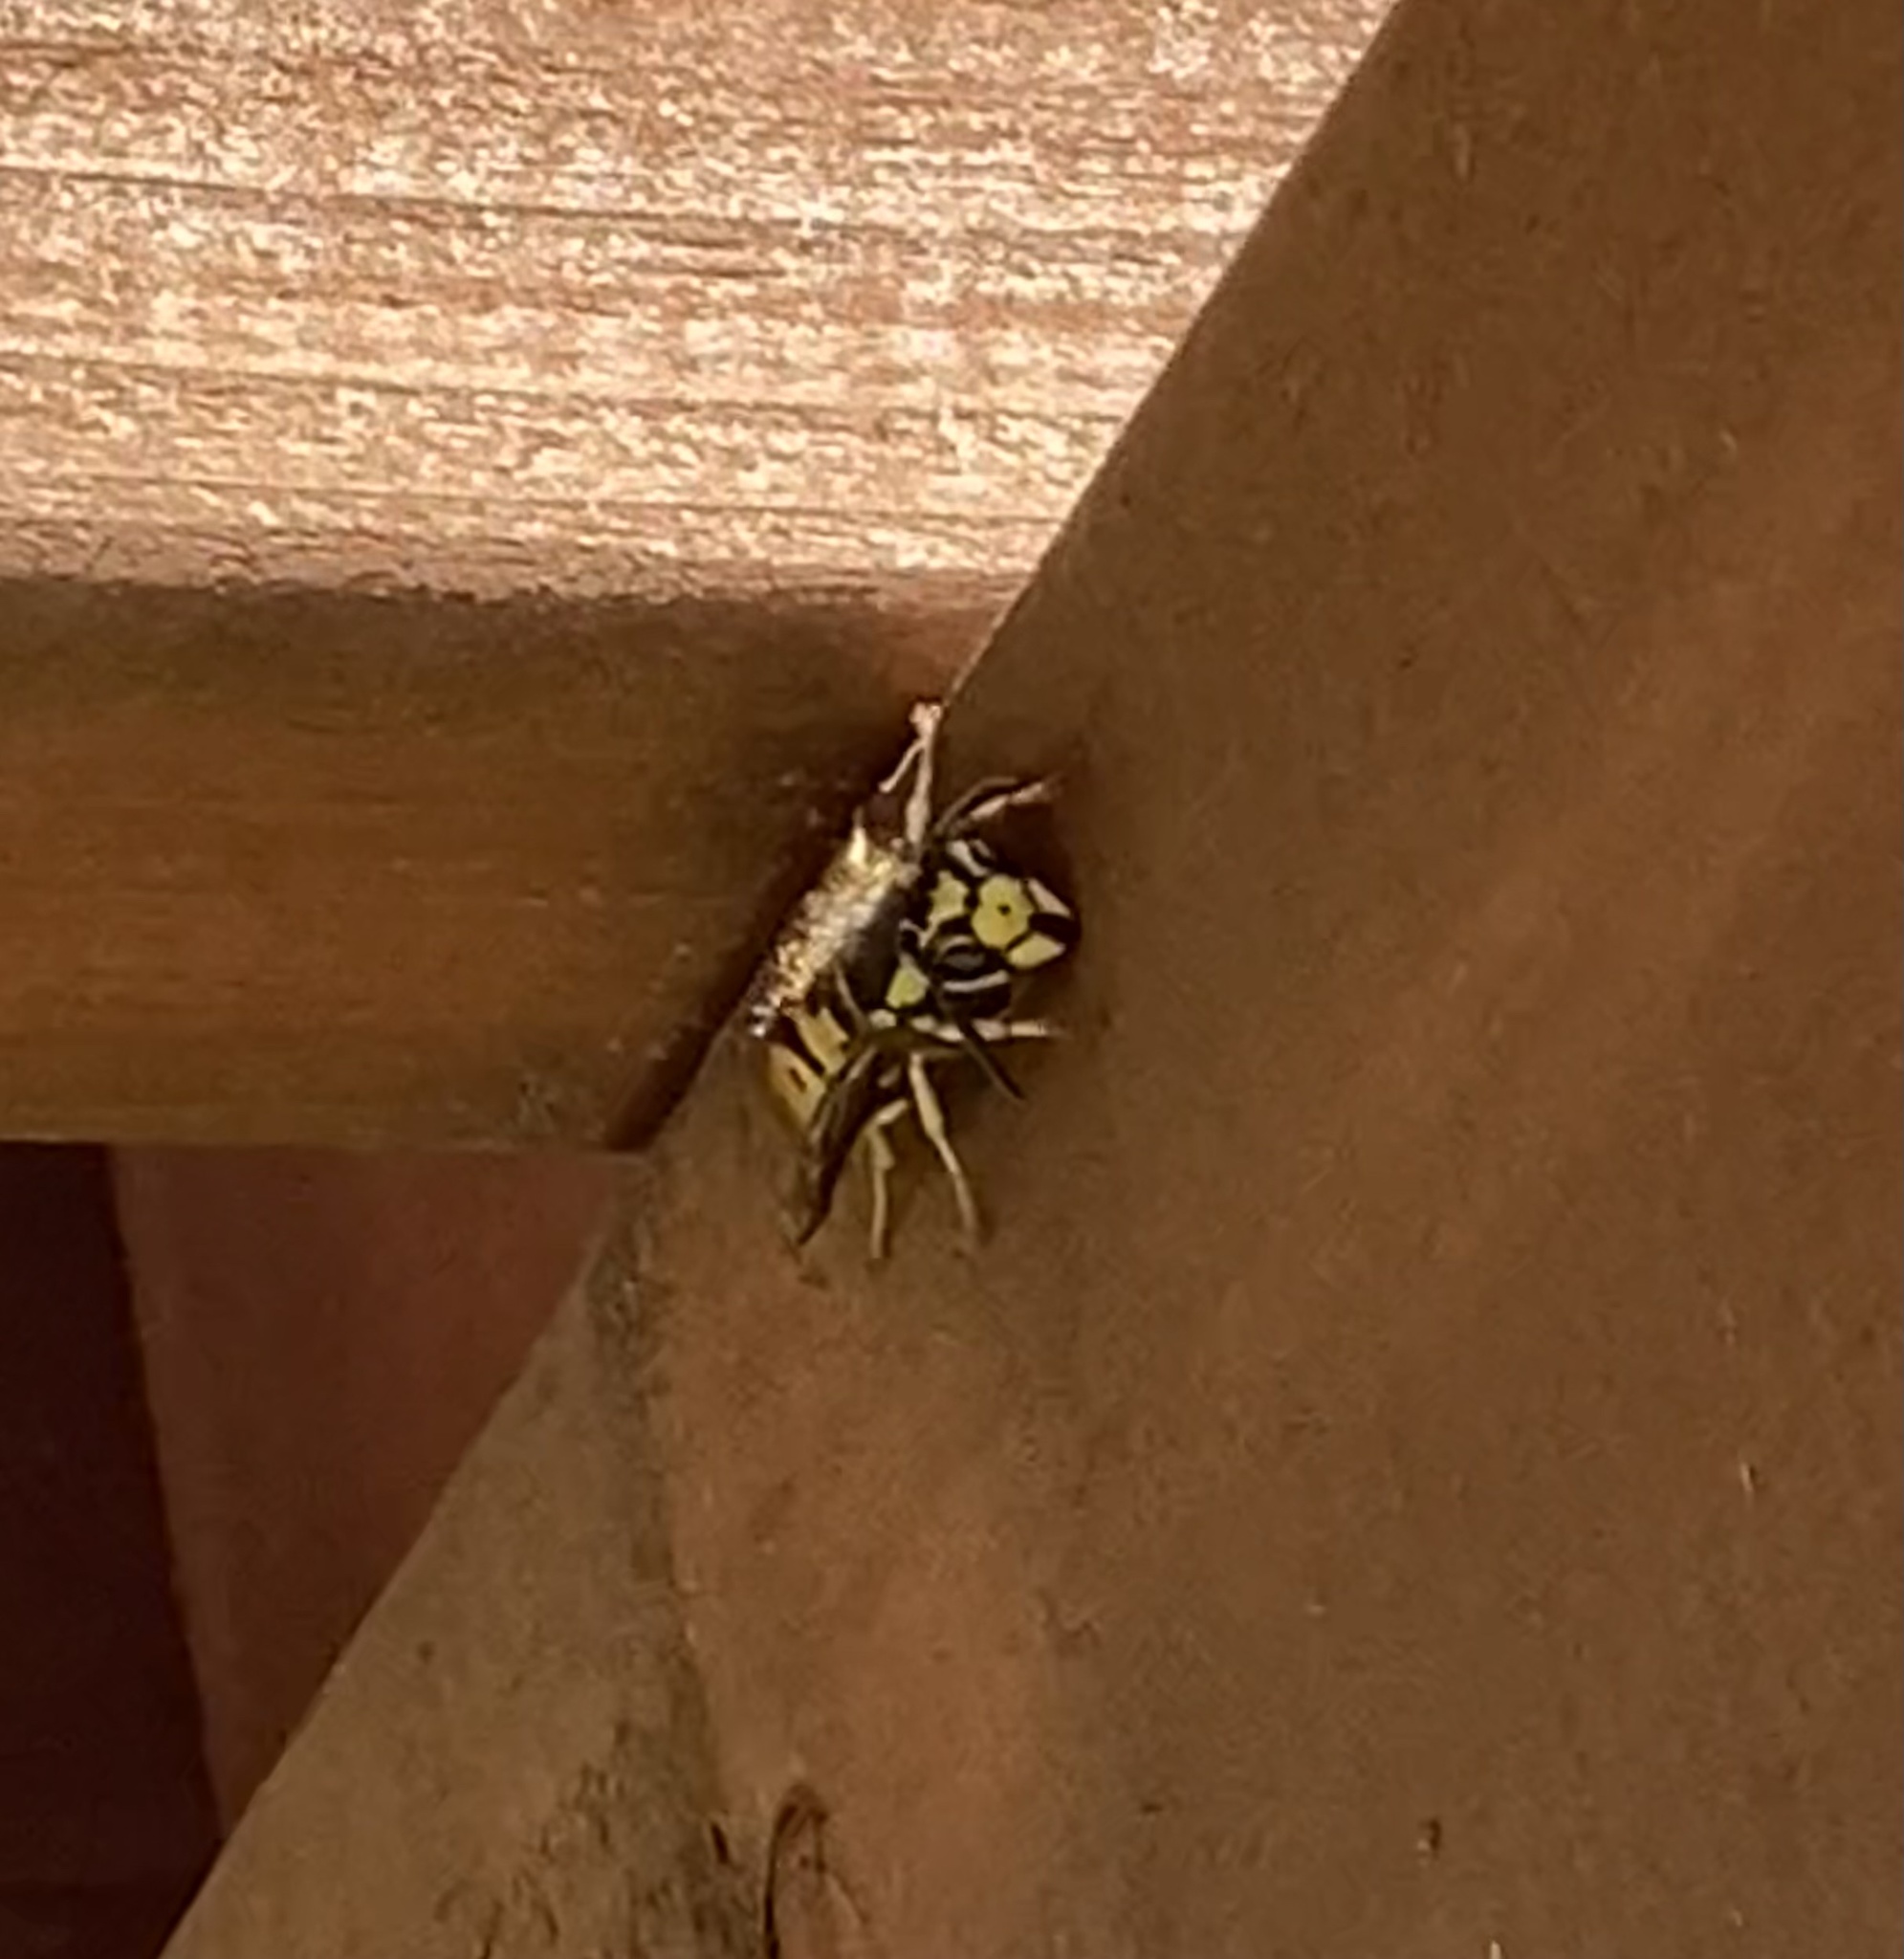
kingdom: Animalia
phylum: Arthropoda
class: Insecta
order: Hymenoptera
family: Vespidae
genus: Vespula
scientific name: Vespula pensylvanica
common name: Western yellowjacket
